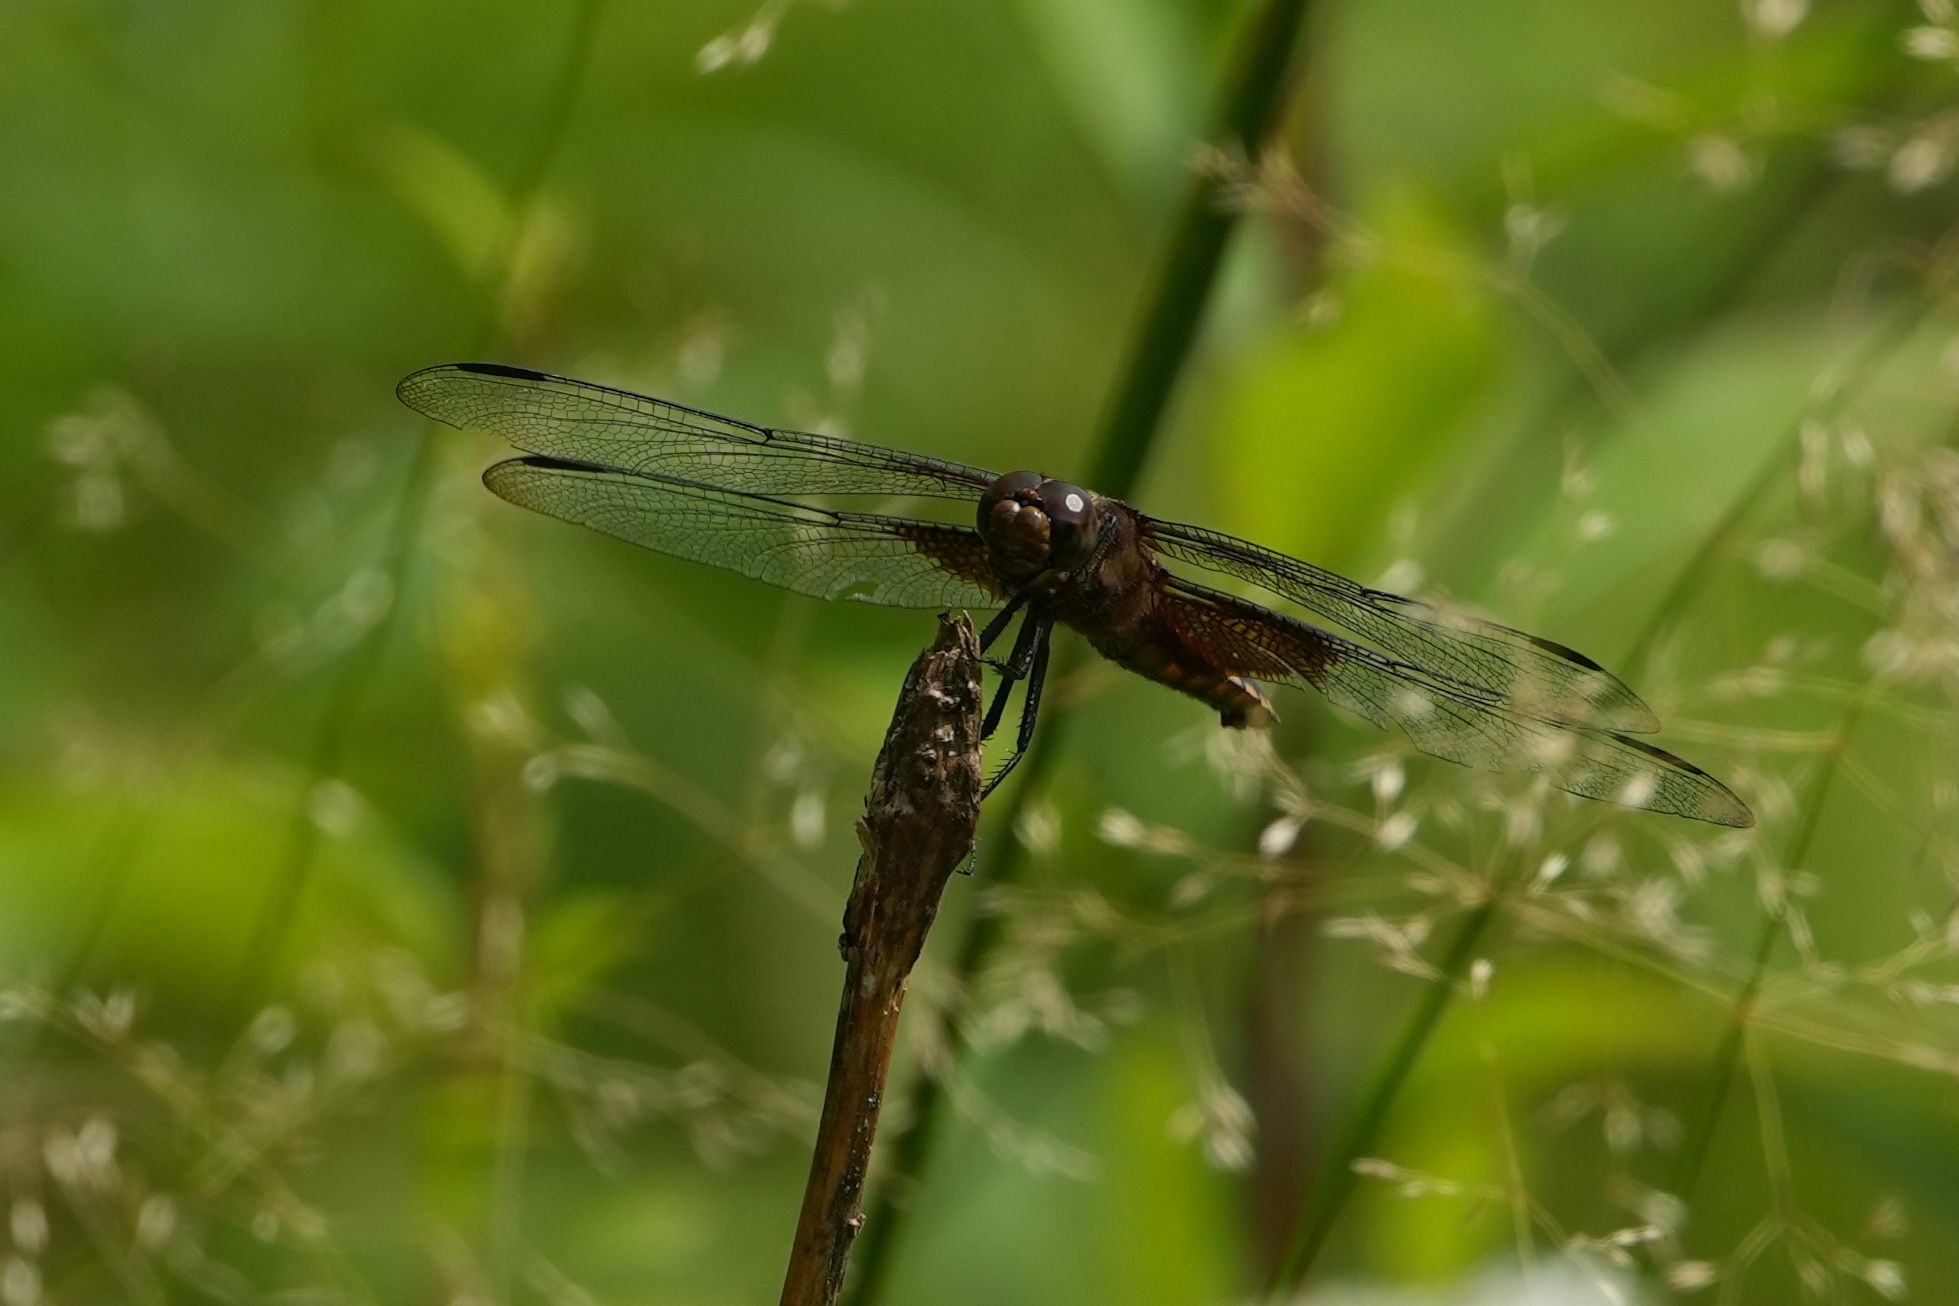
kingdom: Animalia
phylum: Arthropoda
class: Insecta
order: Odonata
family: Libellulidae
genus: Libellula
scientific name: Libellula luctuosa
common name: Widow skimmer
